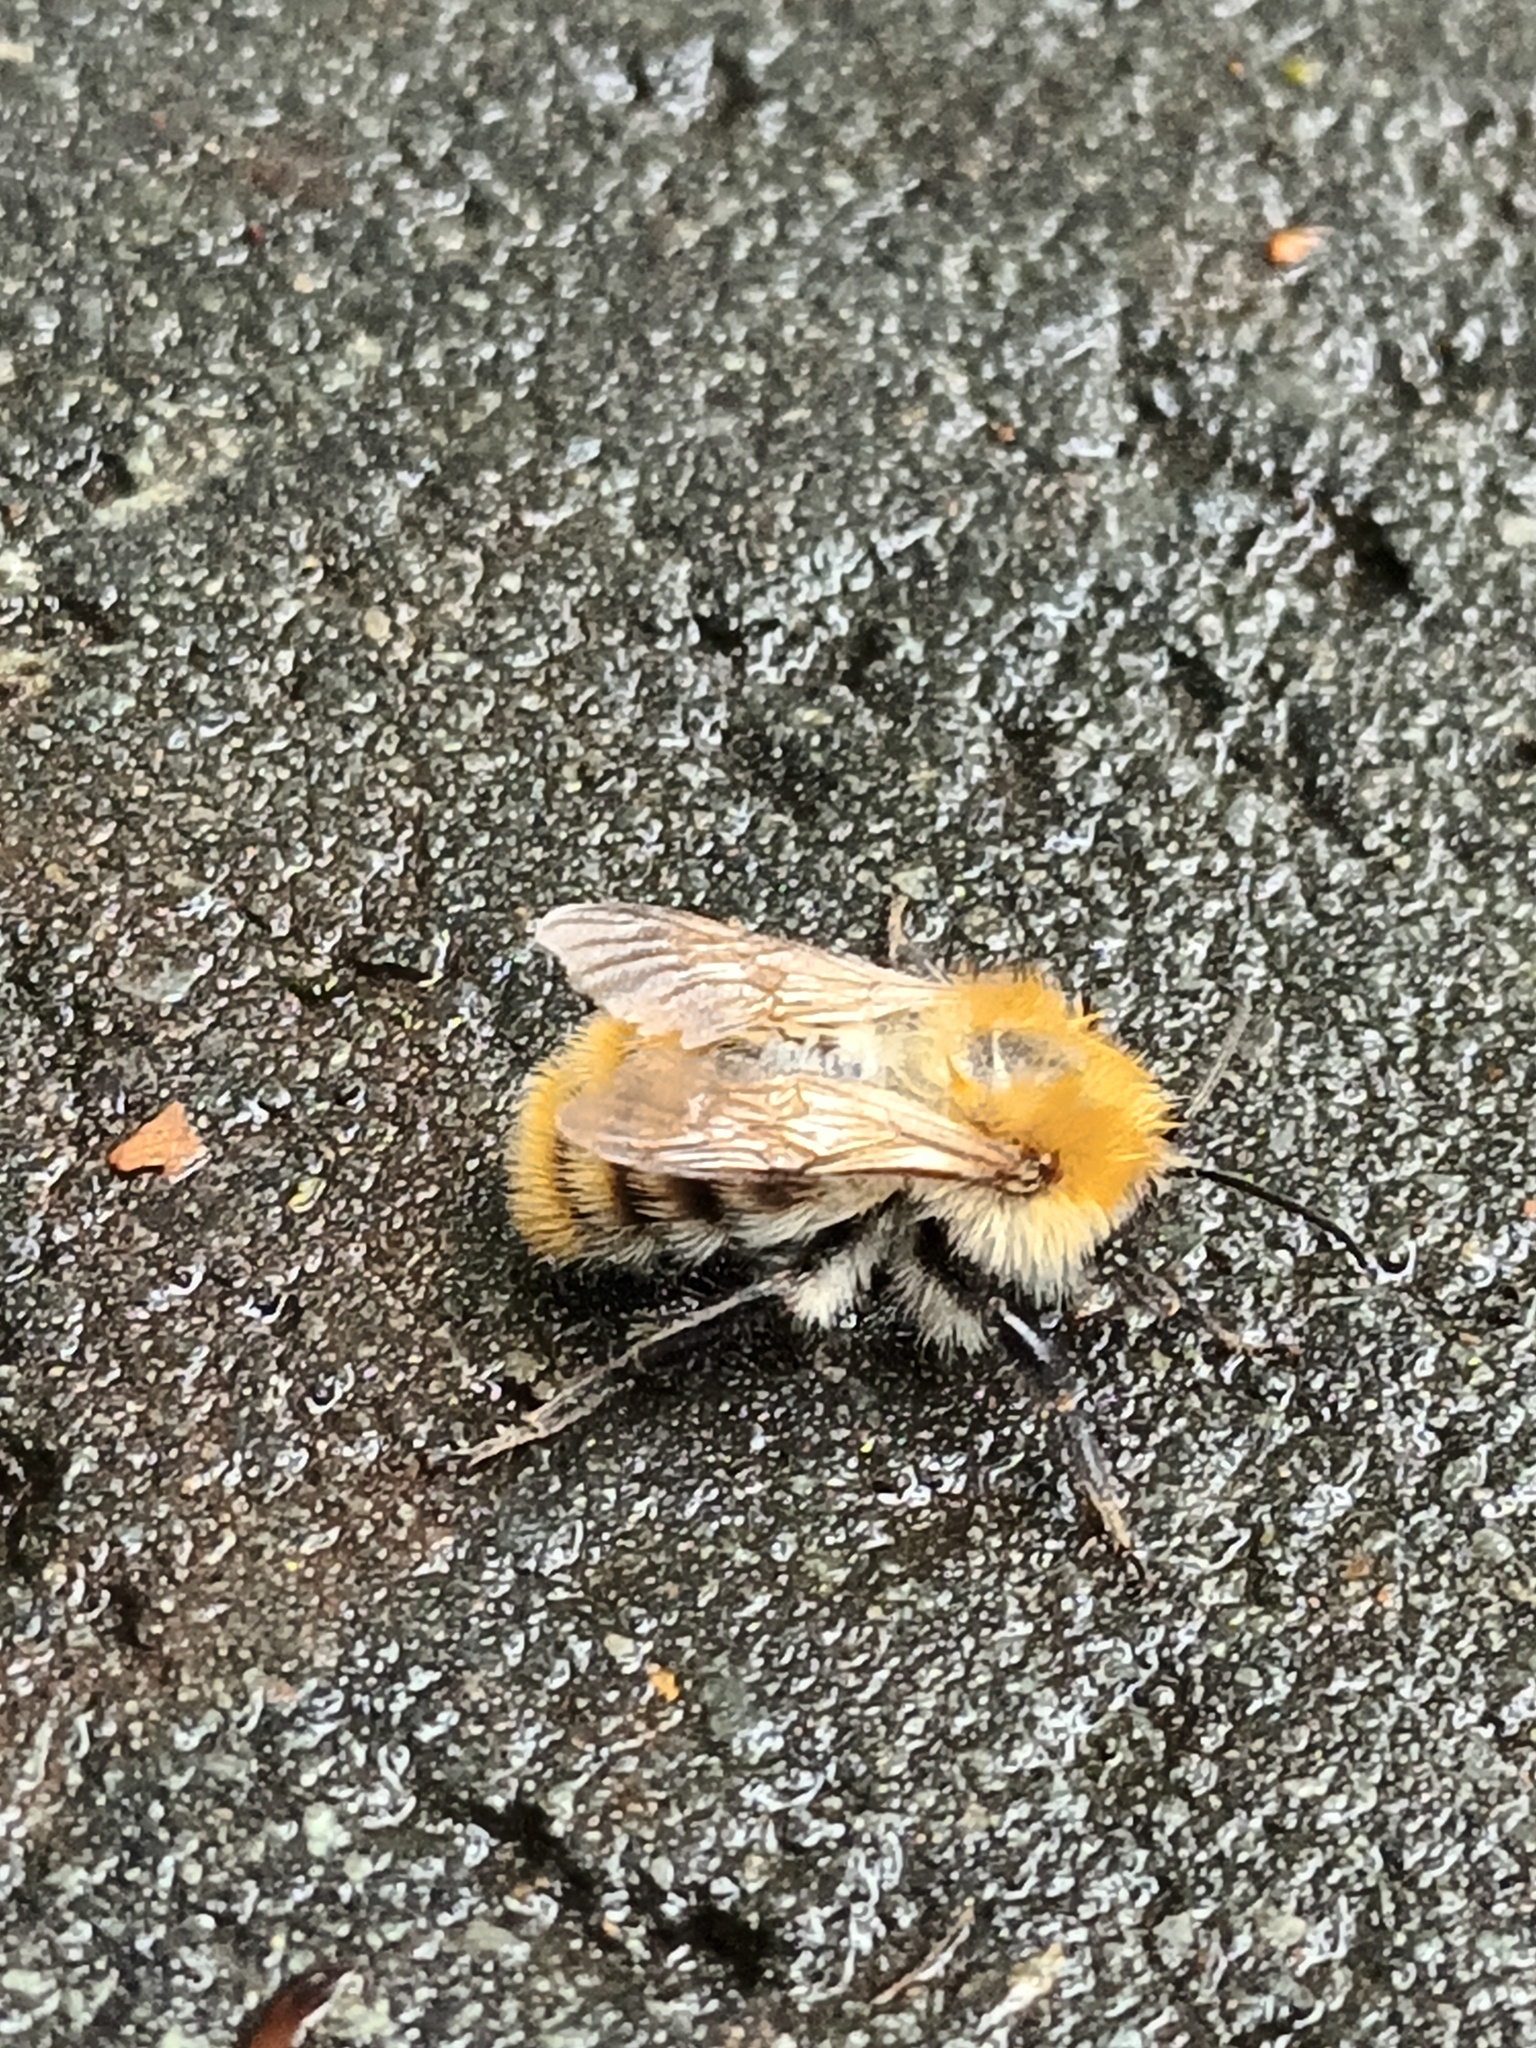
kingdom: Animalia
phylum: Arthropoda
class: Insecta
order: Hymenoptera
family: Apidae
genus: Bombus
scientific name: Bombus pascuorum
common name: Common carder bee
